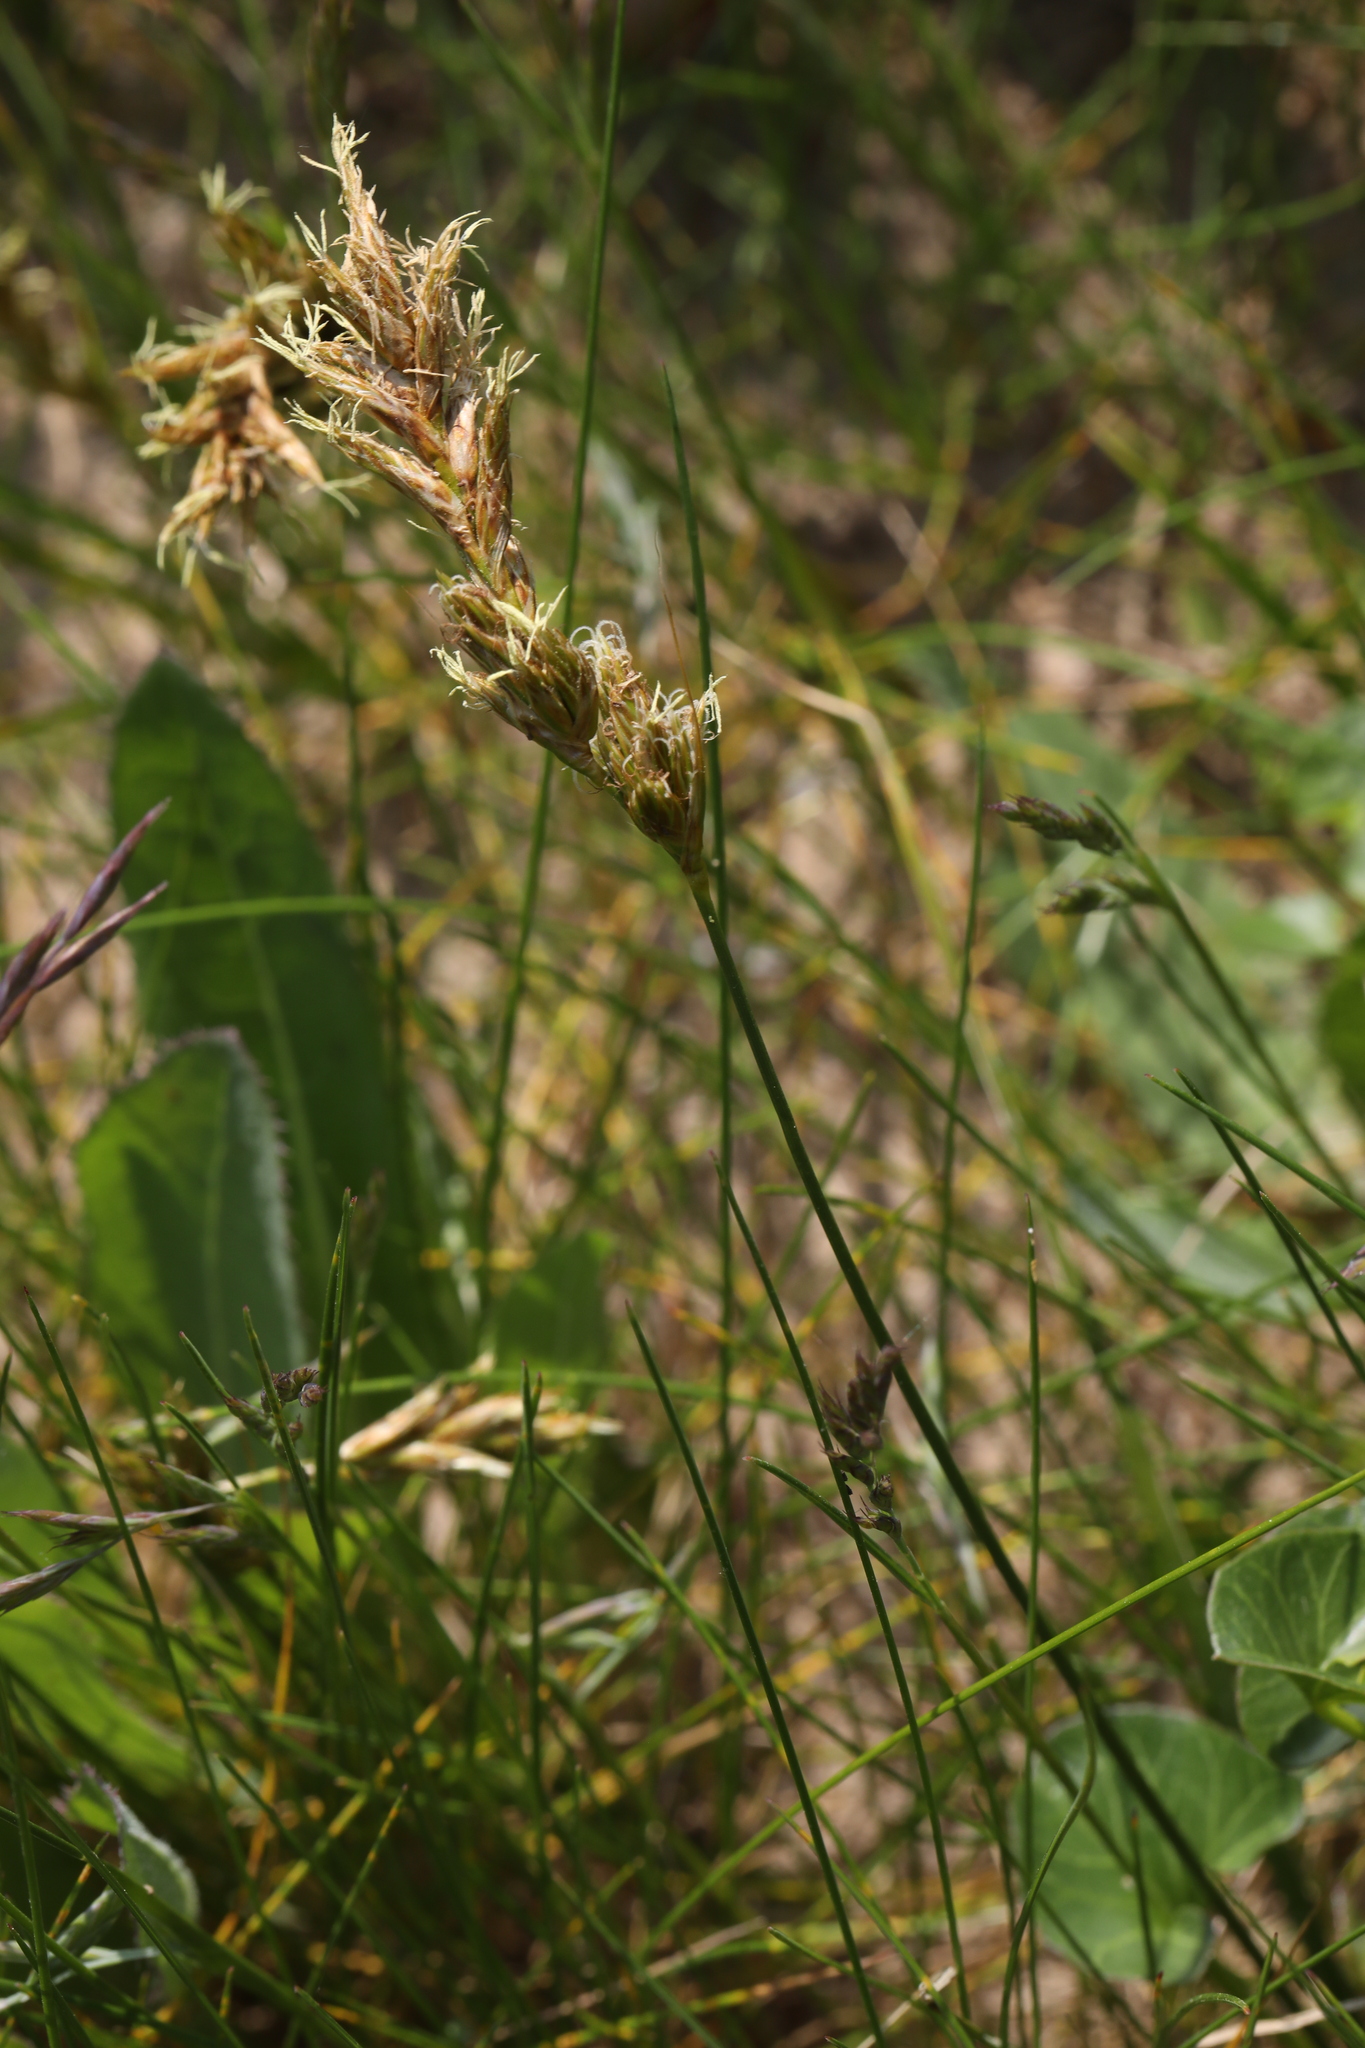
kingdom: Plantae
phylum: Tracheophyta
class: Liliopsida
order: Poales
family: Cyperaceae
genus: Carex
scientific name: Carex arenaria
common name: Sand sedge
